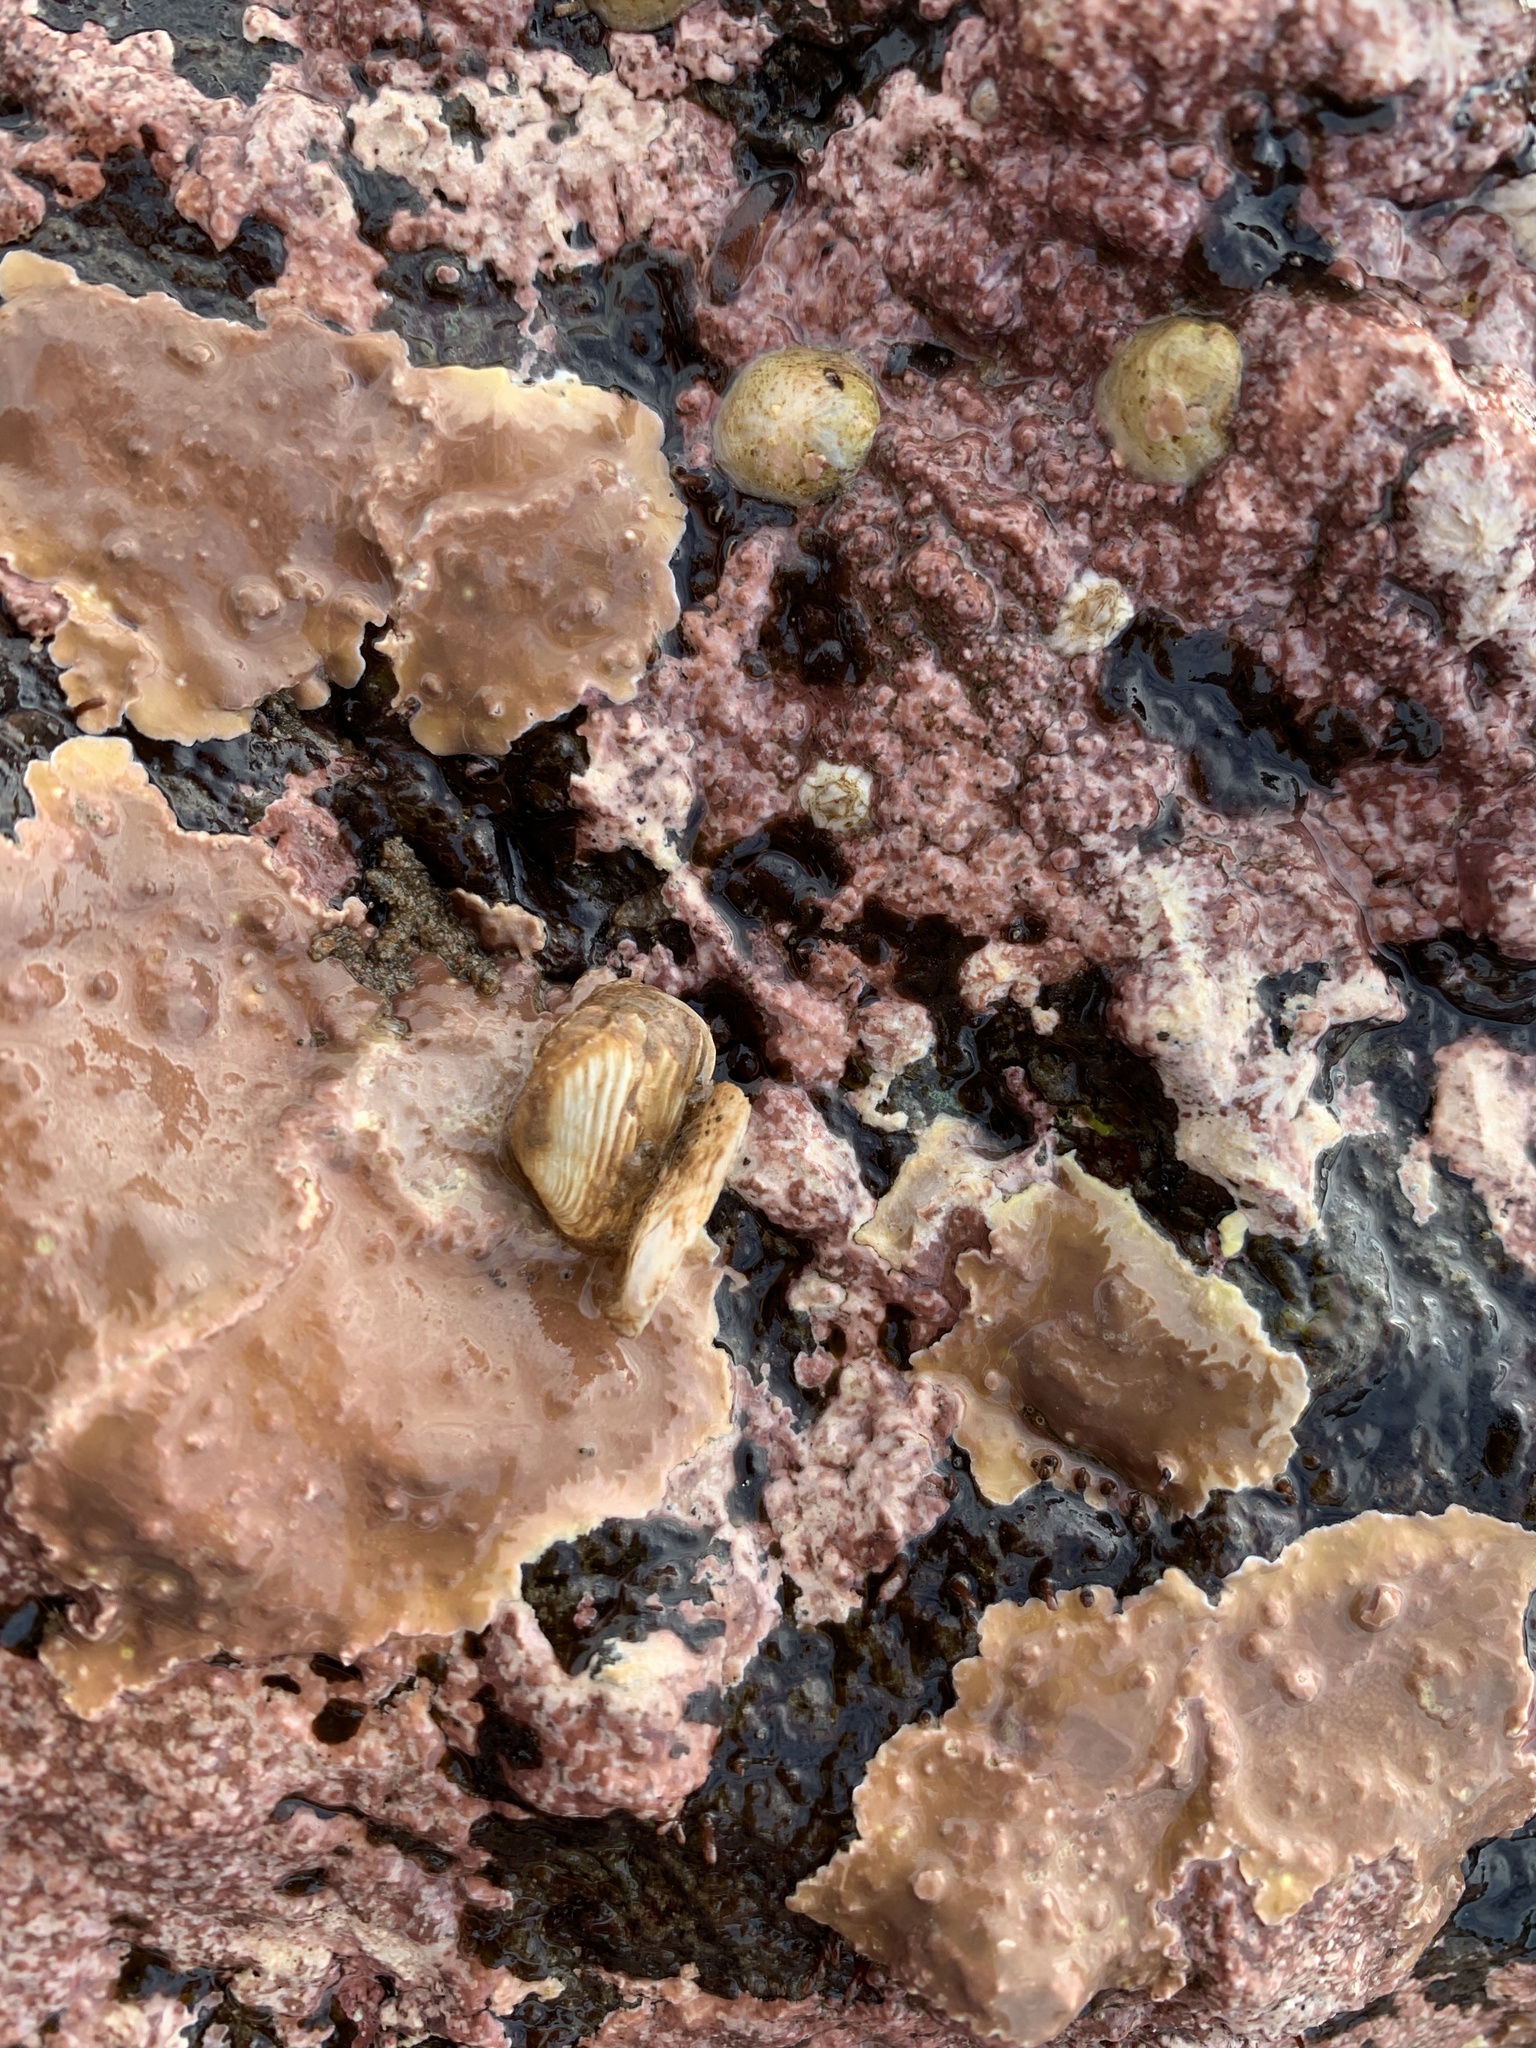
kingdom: Animalia
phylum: Mollusca
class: Bivalvia
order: Adapedonta
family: Hiatellidae
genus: Hiatella
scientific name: Hiatella arctica
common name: Arctic hiatella
